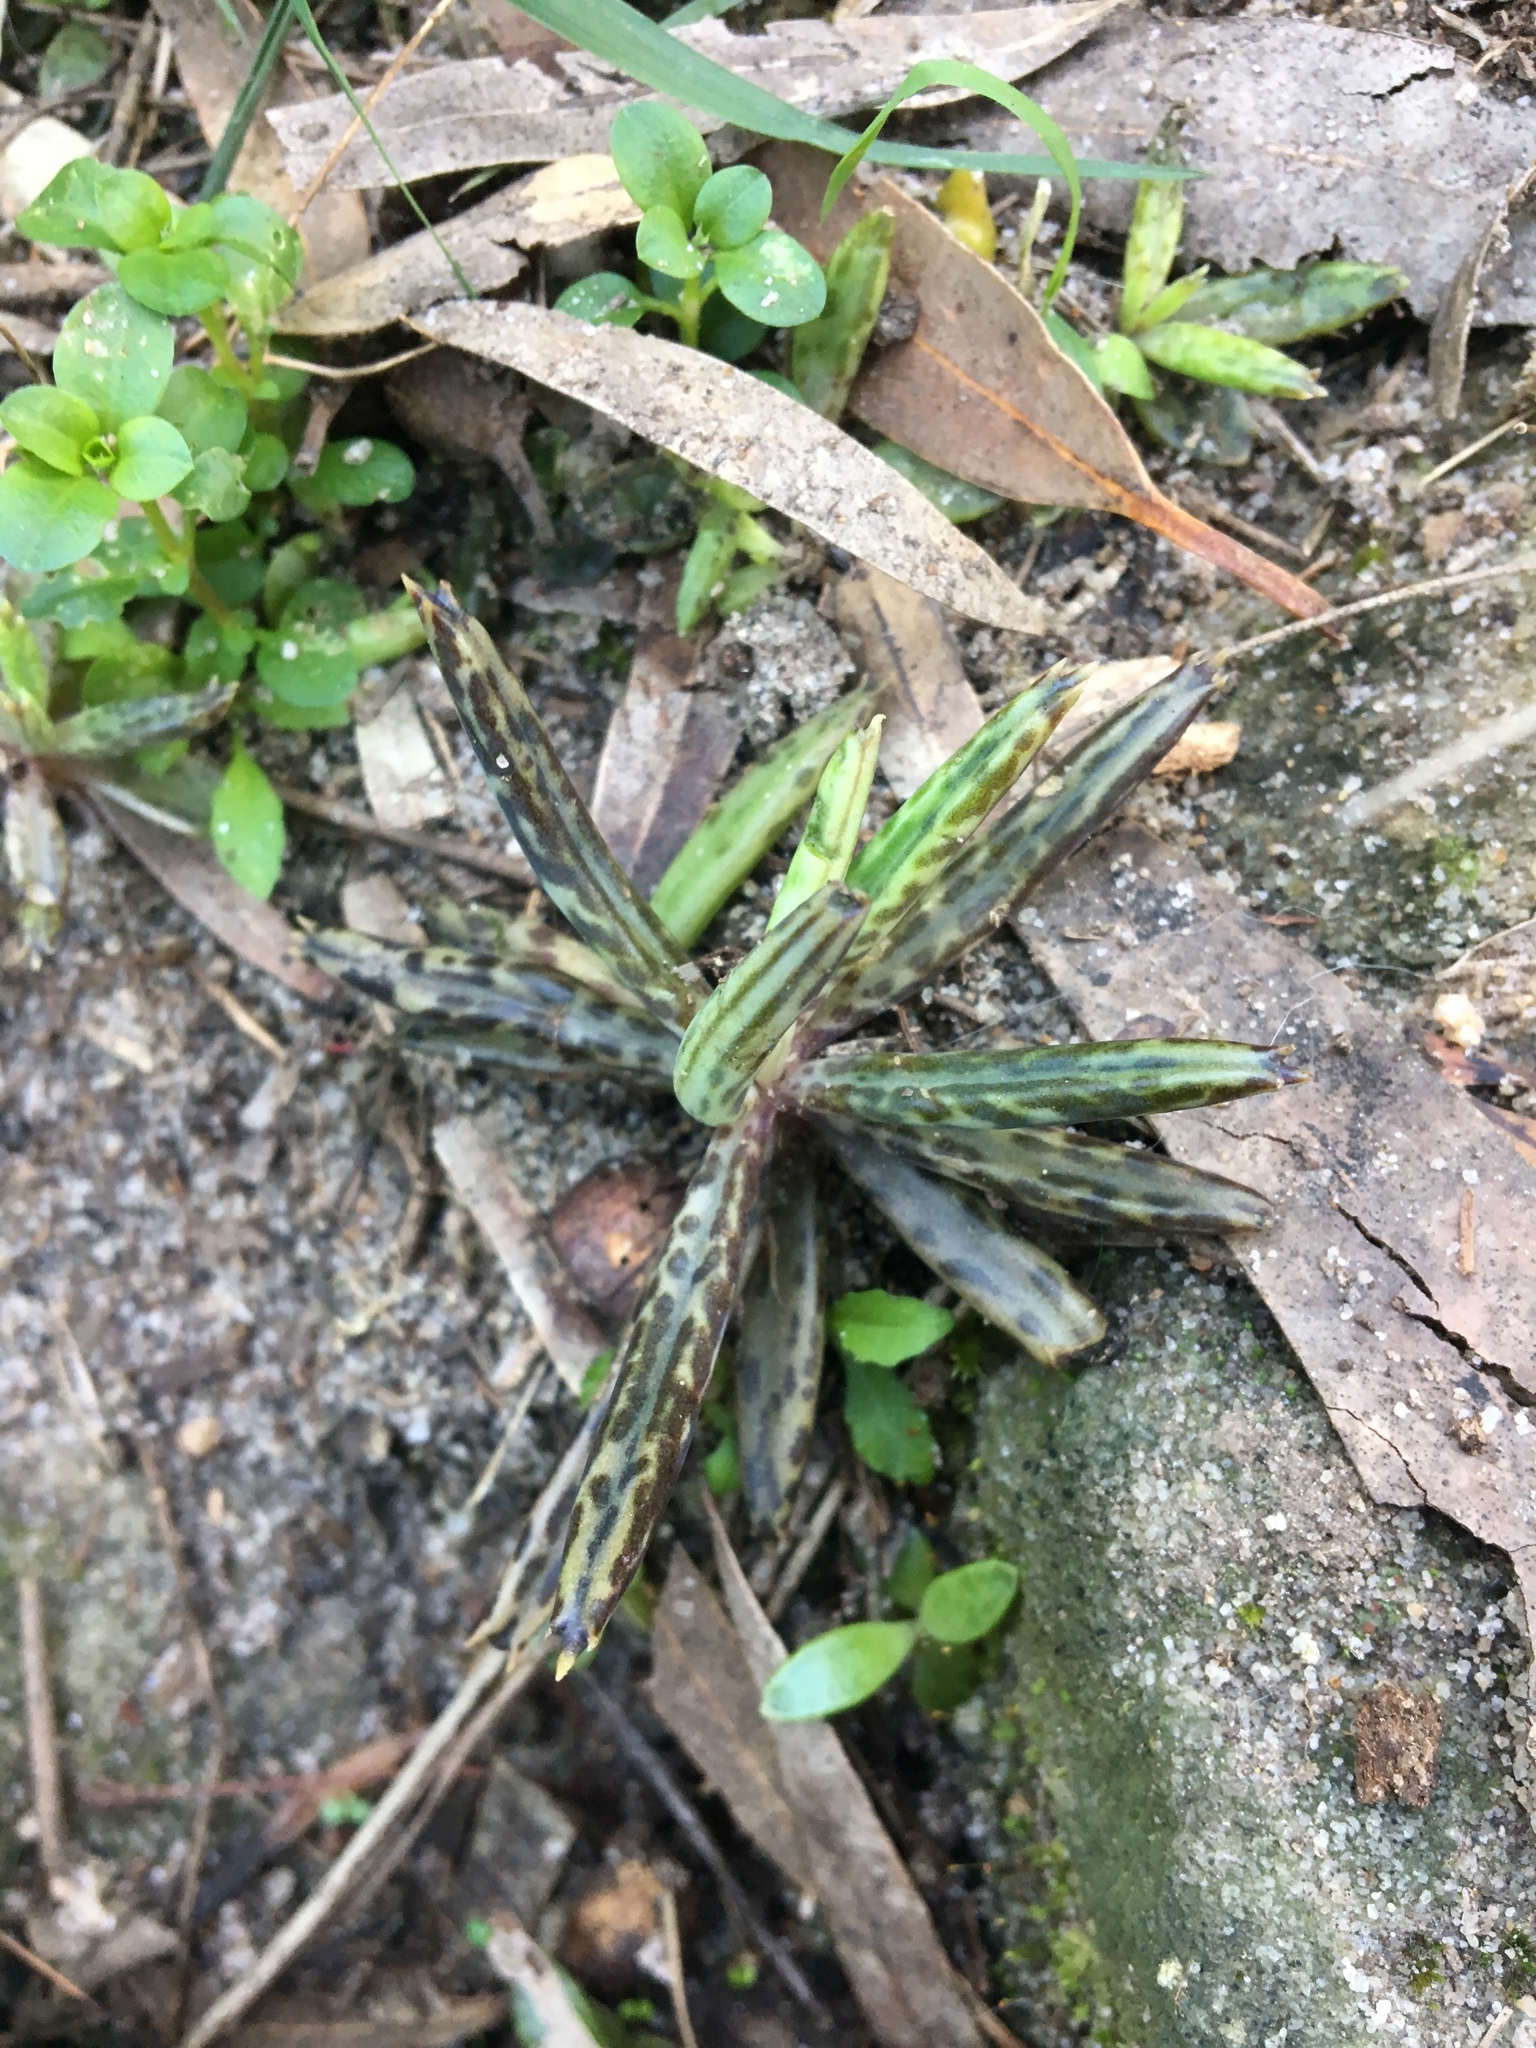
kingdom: Plantae
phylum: Tracheophyta
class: Magnoliopsida
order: Saxifragales
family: Crassulaceae
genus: Kalanchoe
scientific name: Kalanchoe delagoensis
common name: Chandelier plant
